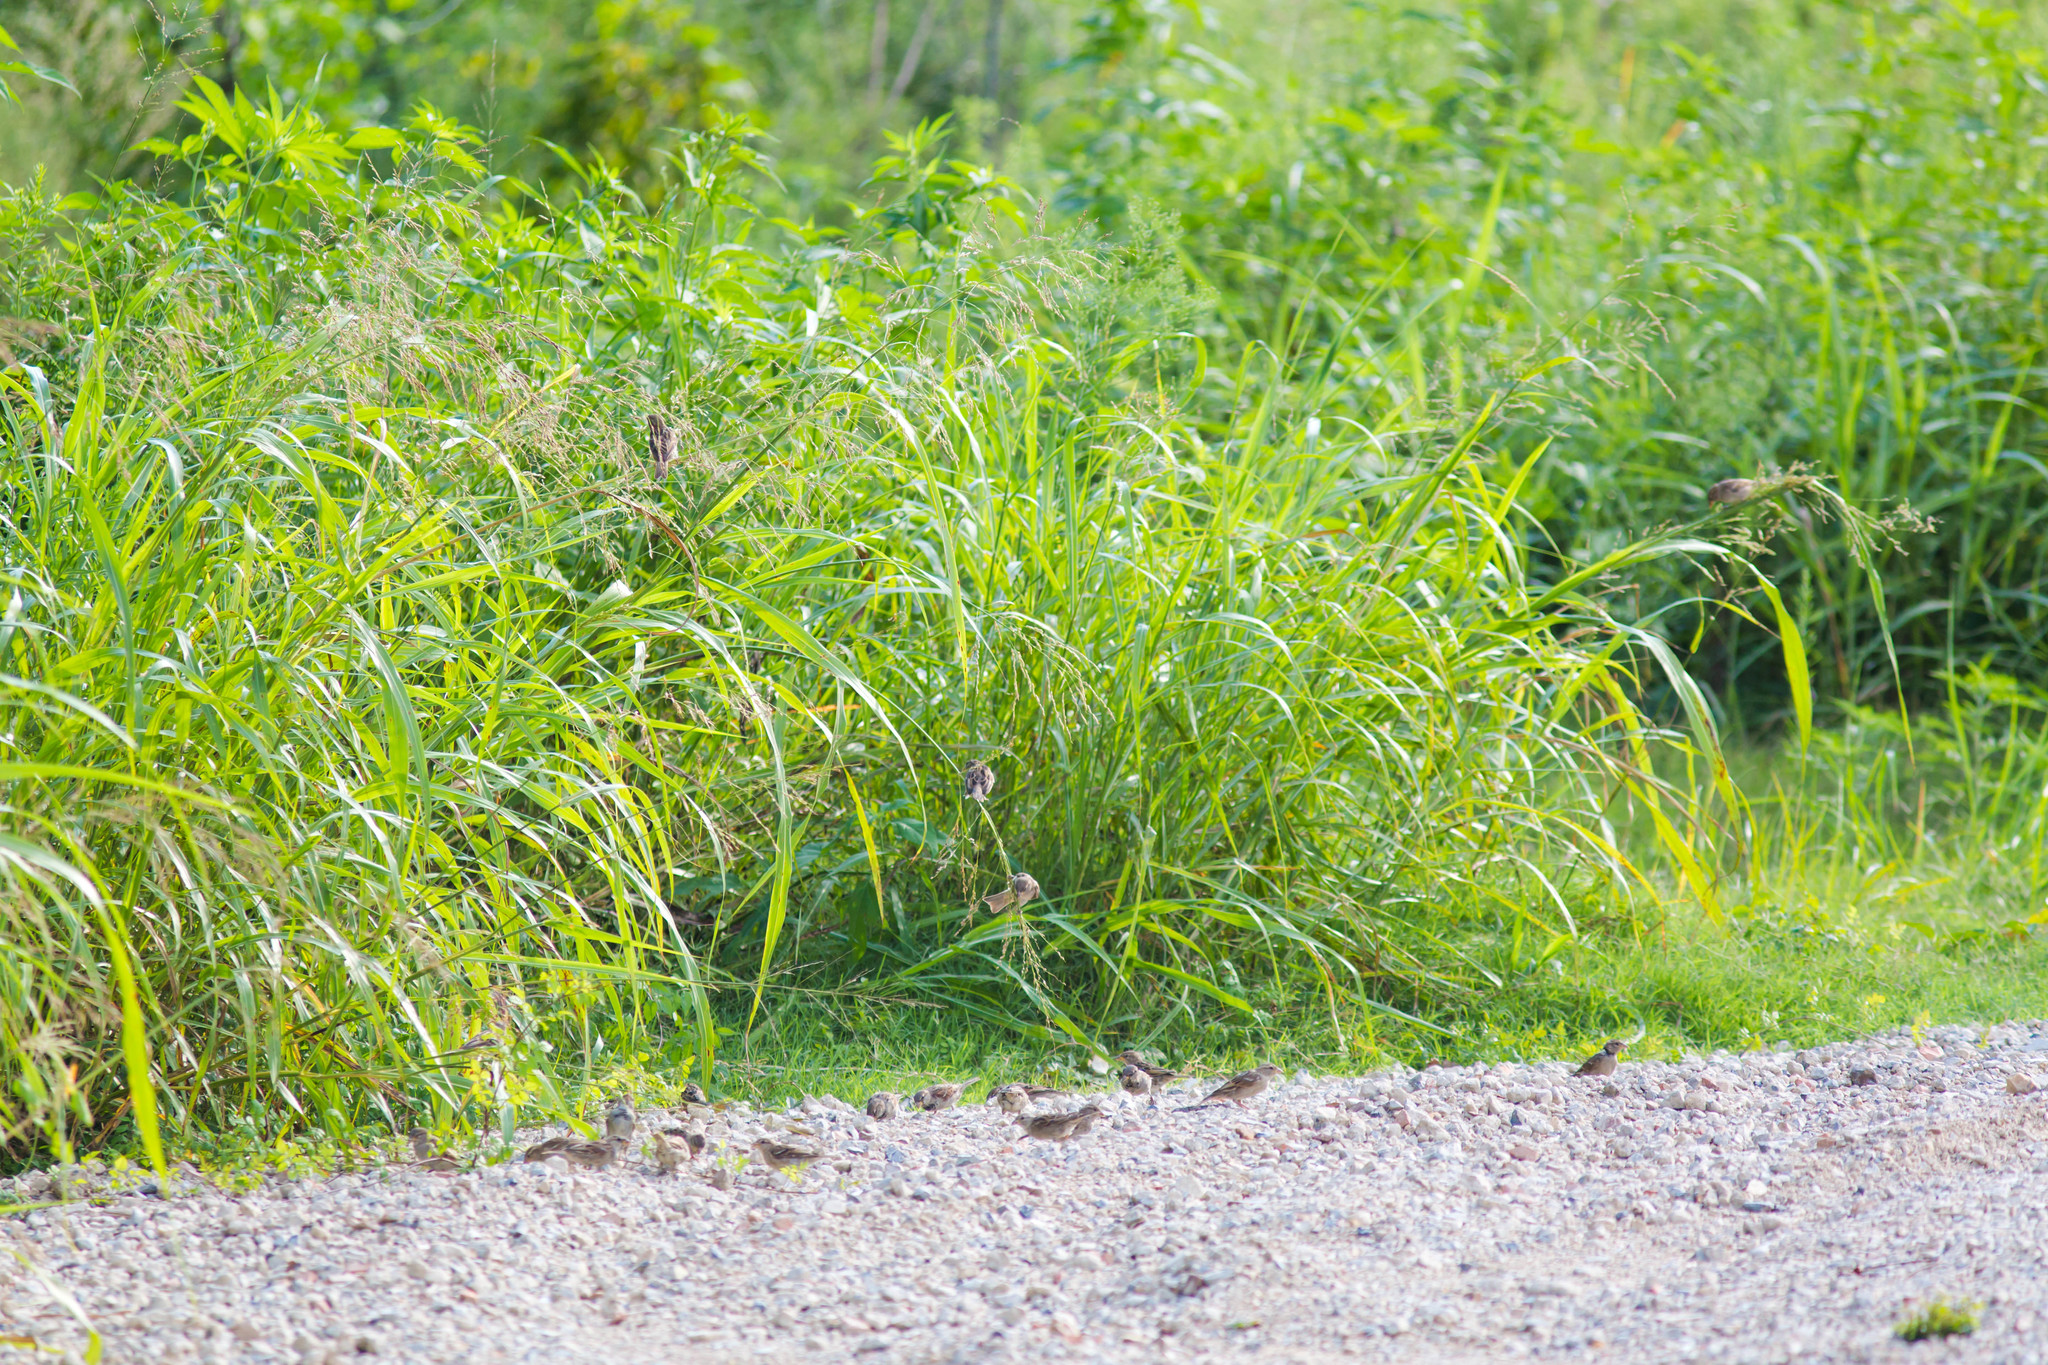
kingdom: Animalia
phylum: Chordata
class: Aves
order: Passeriformes
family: Passeridae
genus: Passer
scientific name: Passer domesticus
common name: House sparrow
